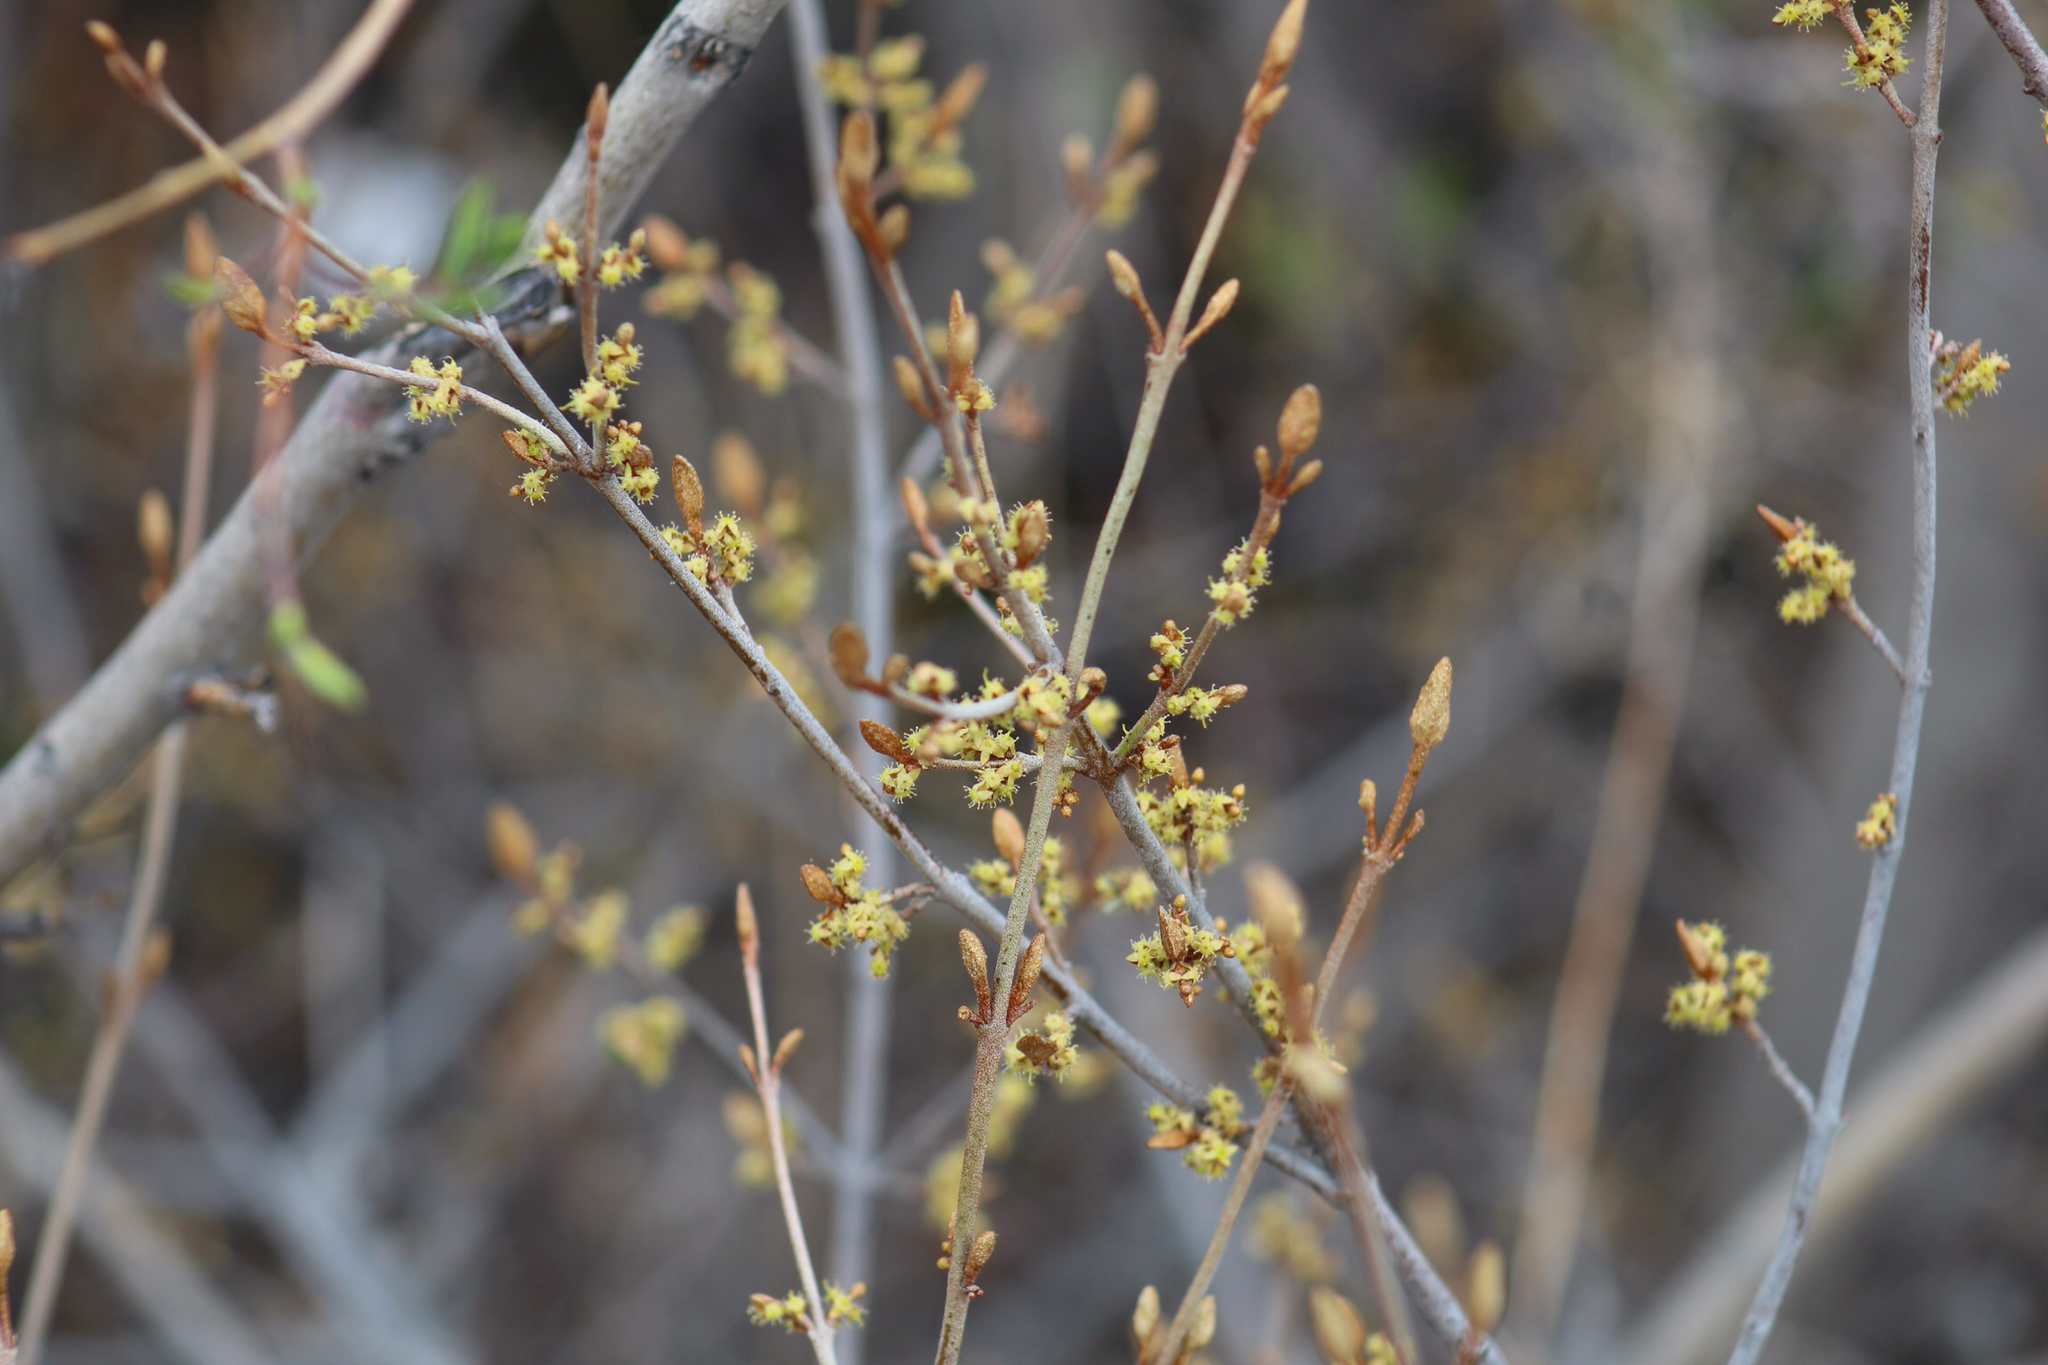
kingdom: Plantae
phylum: Tracheophyta
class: Magnoliopsida
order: Rosales
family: Elaeagnaceae
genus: Shepherdia
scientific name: Shepherdia canadensis
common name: Soapberry
